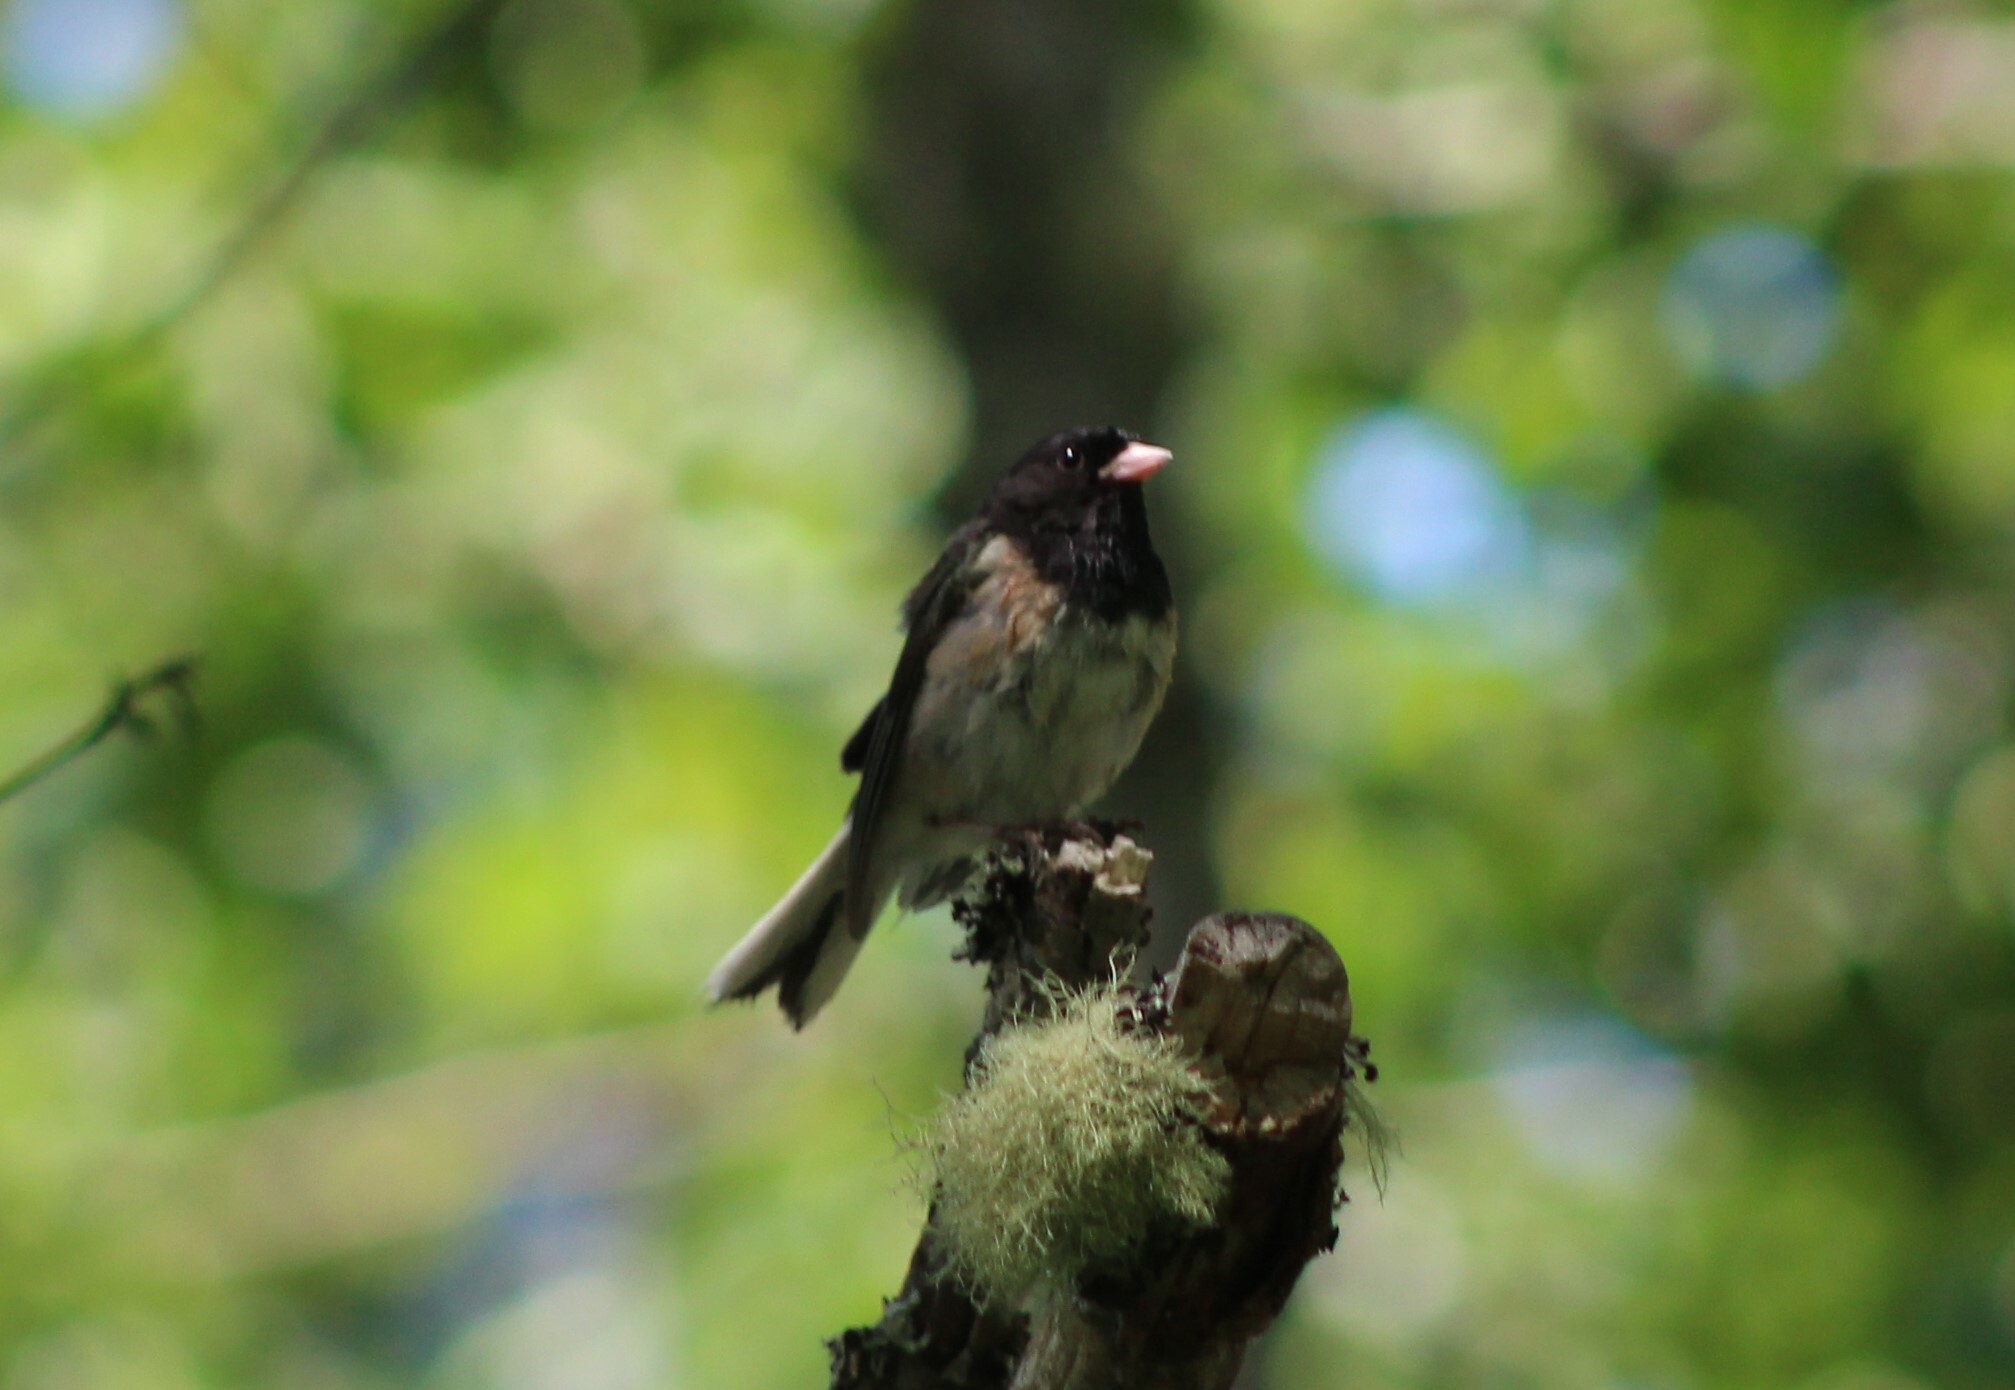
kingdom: Animalia
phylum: Chordata
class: Aves
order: Passeriformes
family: Passerellidae
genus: Junco
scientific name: Junco hyemalis
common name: Dark-eyed junco
